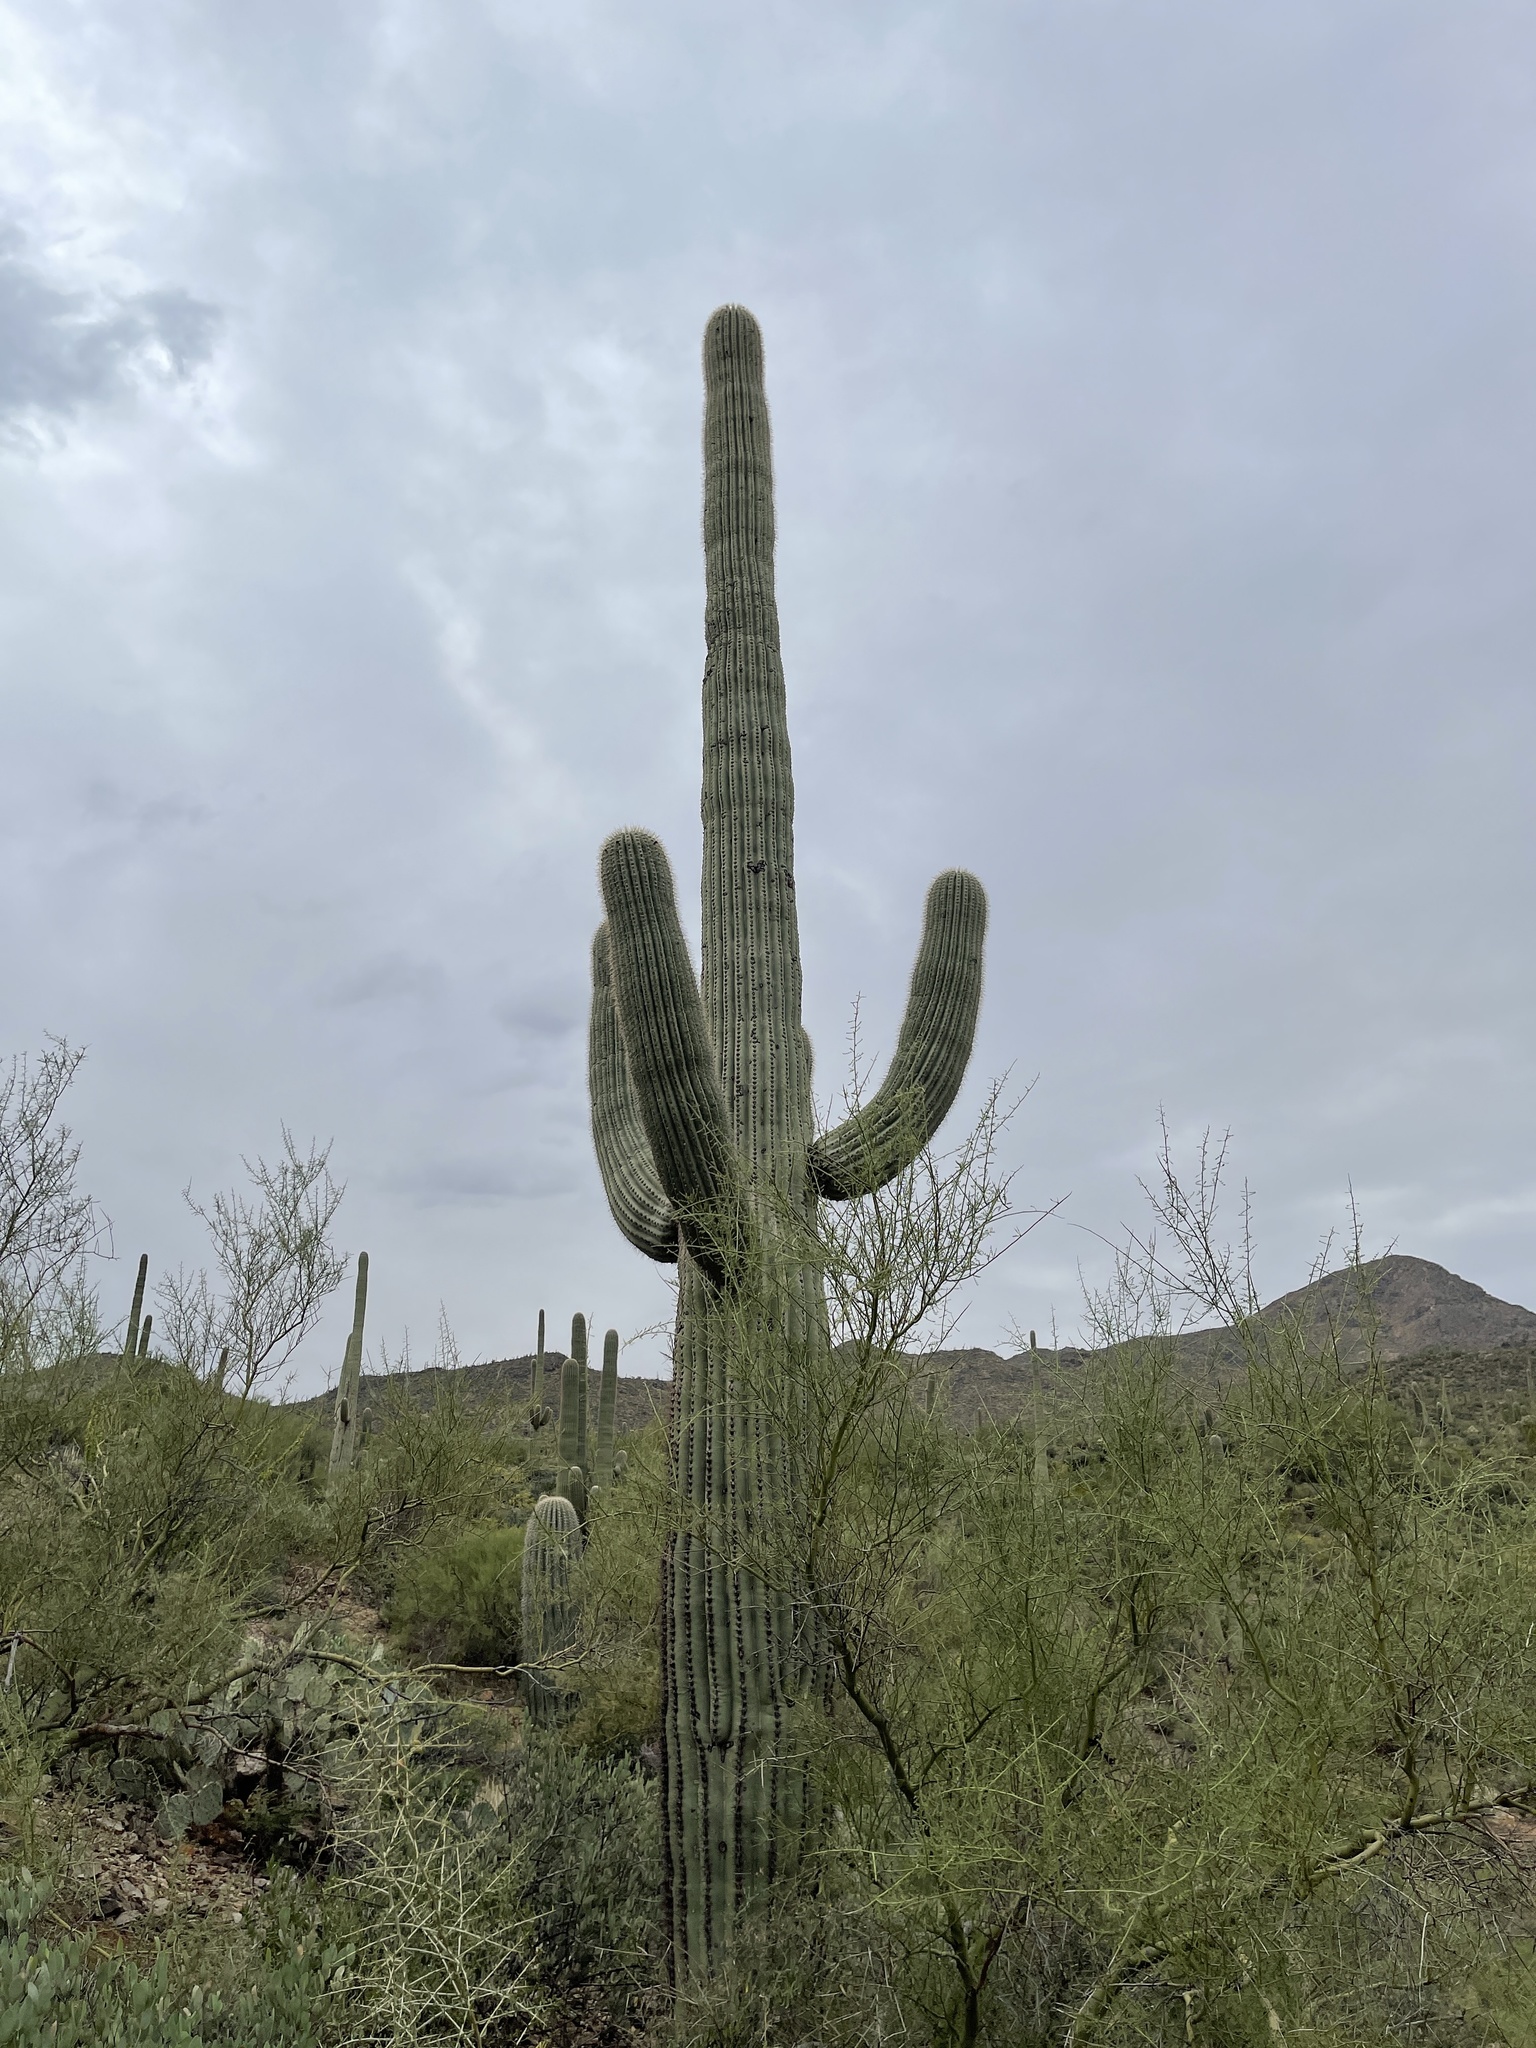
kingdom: Plantae
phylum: Tracheophyta
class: Magnoliopsida
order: Caryophyllales
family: Cactaceae
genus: Carnegiea
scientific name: Carnegiea gigantea
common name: Saguaro
